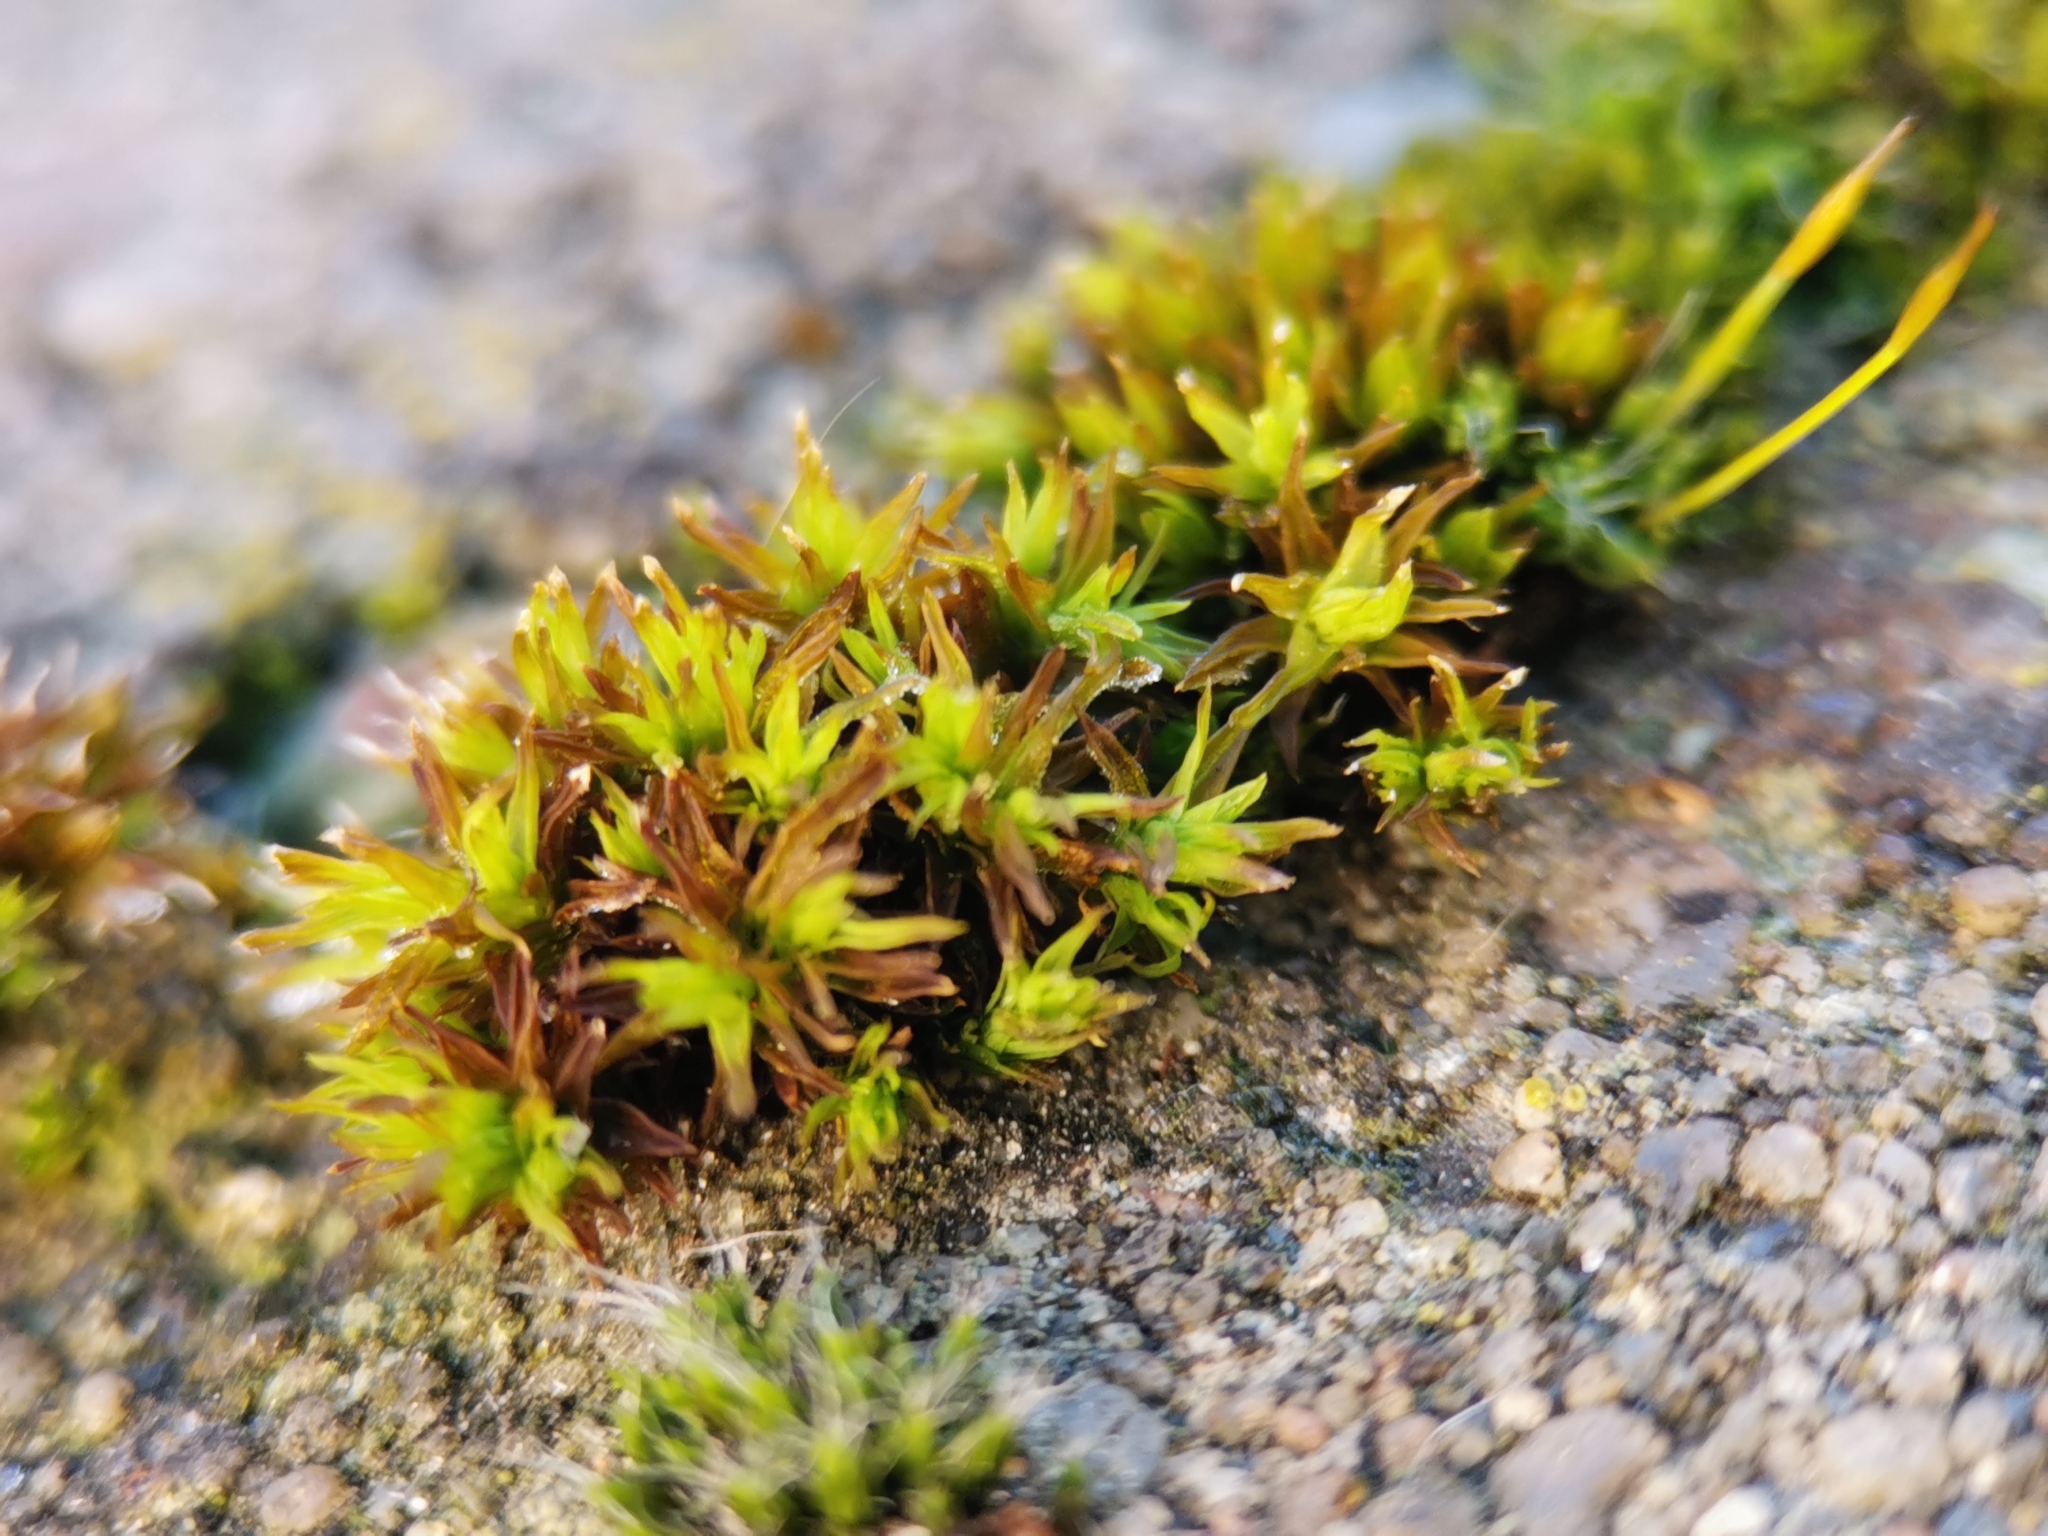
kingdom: Plantae
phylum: Bryophyta
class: Bryopsida
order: Orthotrichales
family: Orthotrichaceae
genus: Orthotrichum
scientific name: Orthotrichum anomalum
